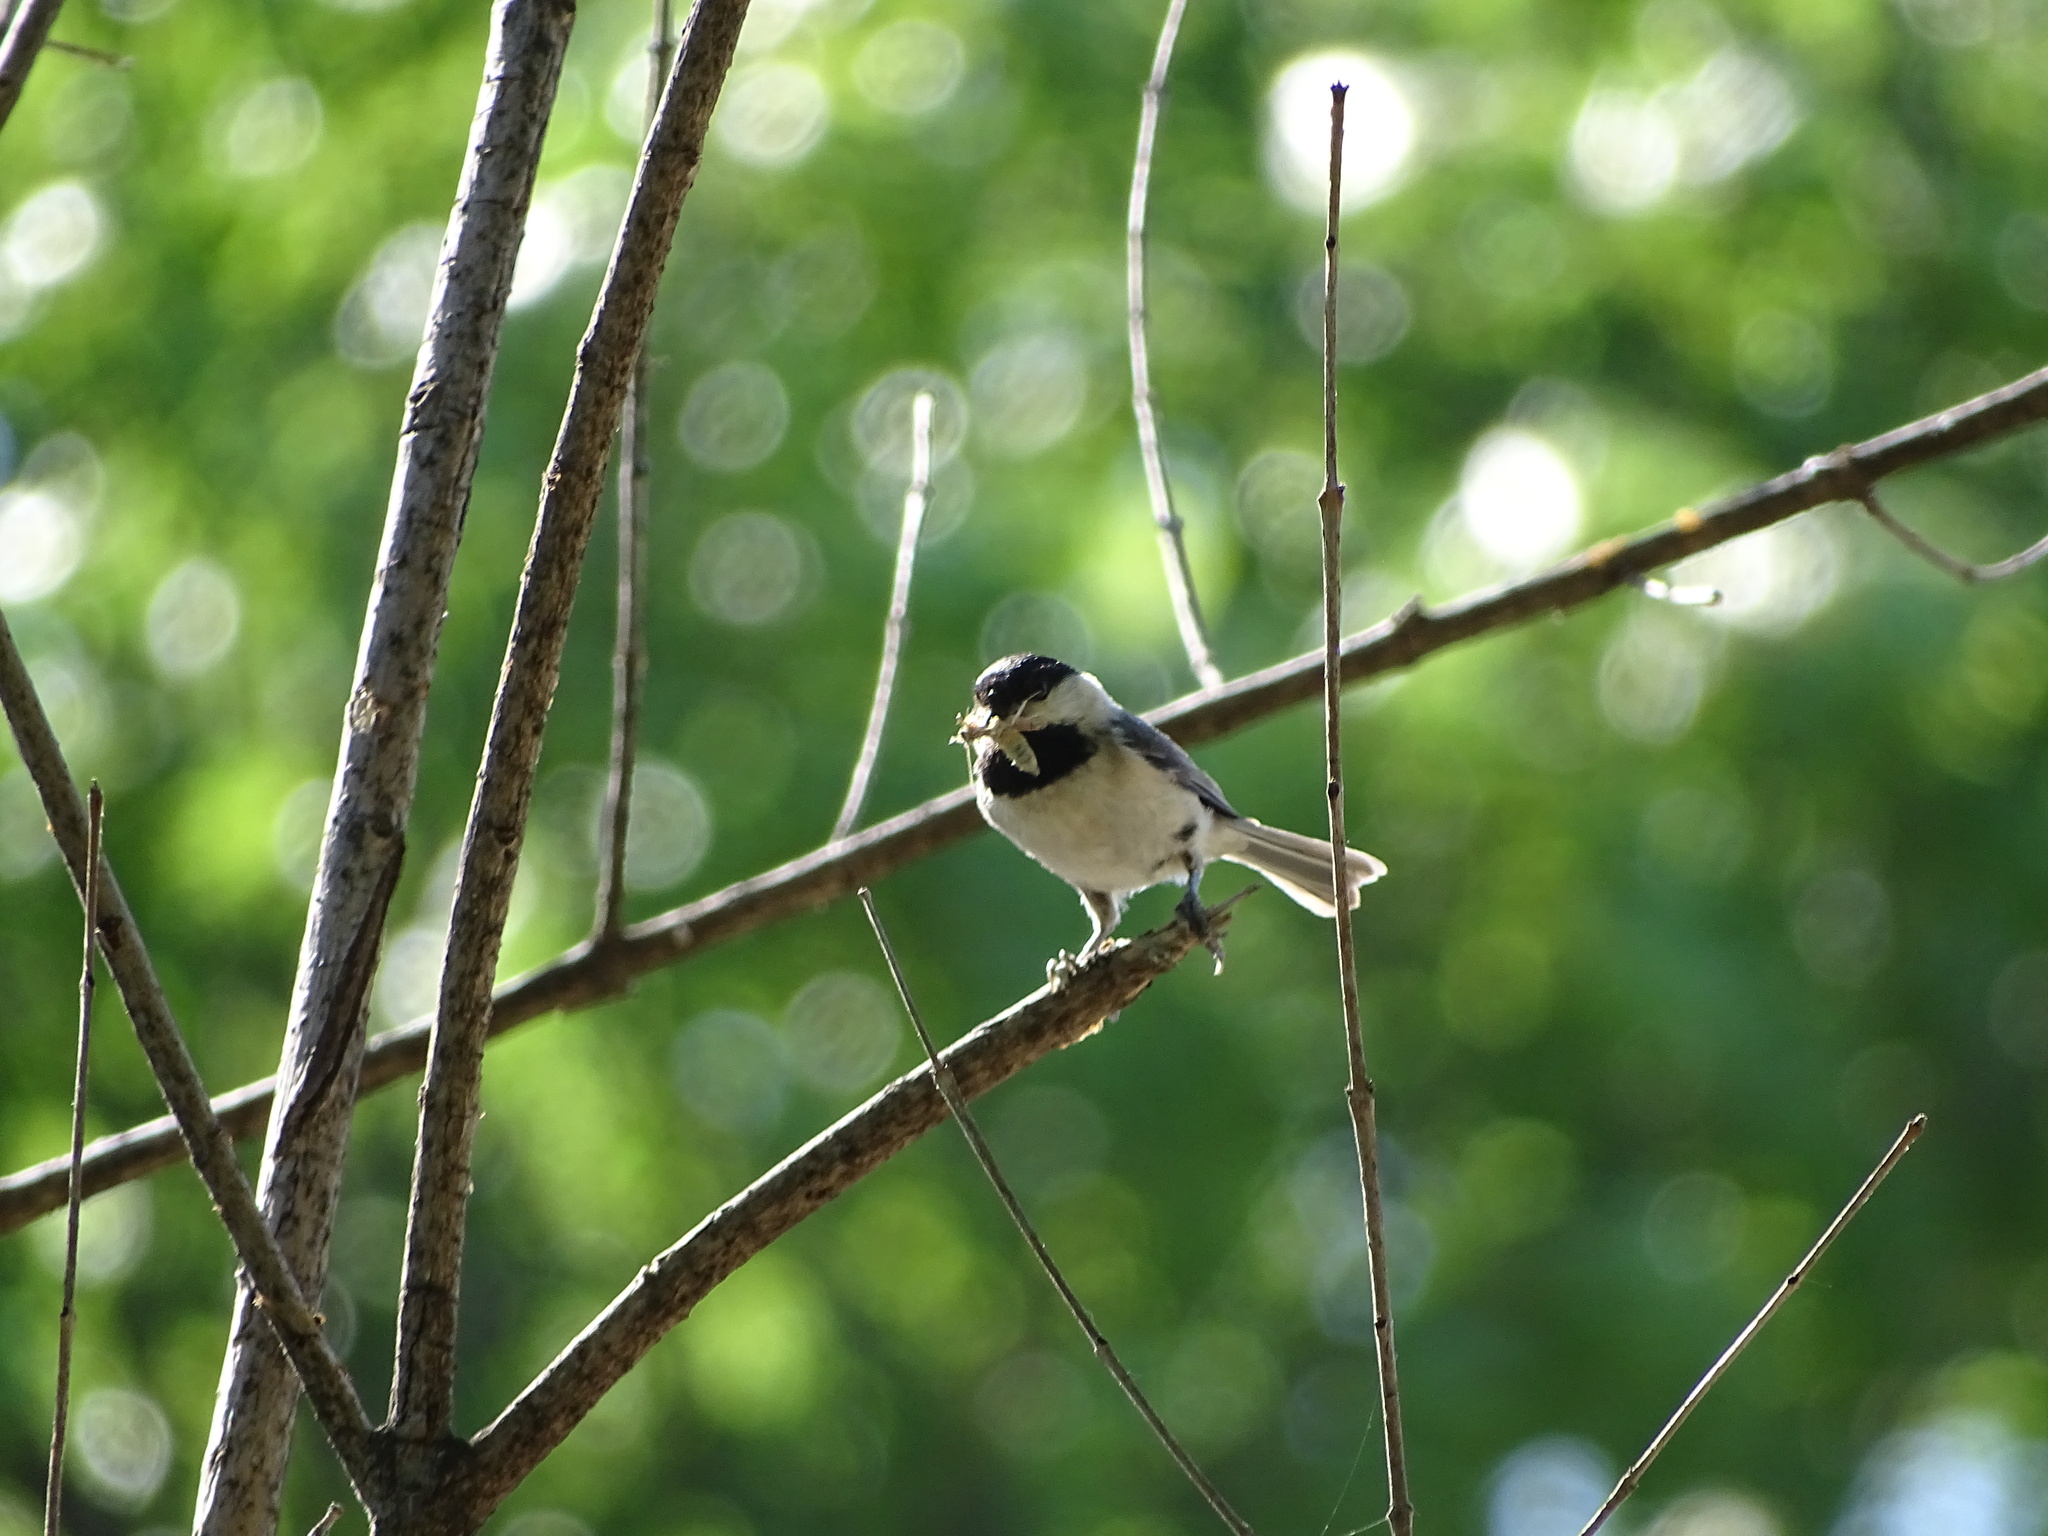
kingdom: Animalia
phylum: Chordata
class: Aves
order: Passeriformes
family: Paridae
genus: Poecile
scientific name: Poecile carolinensis
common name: Carolina chickadee
